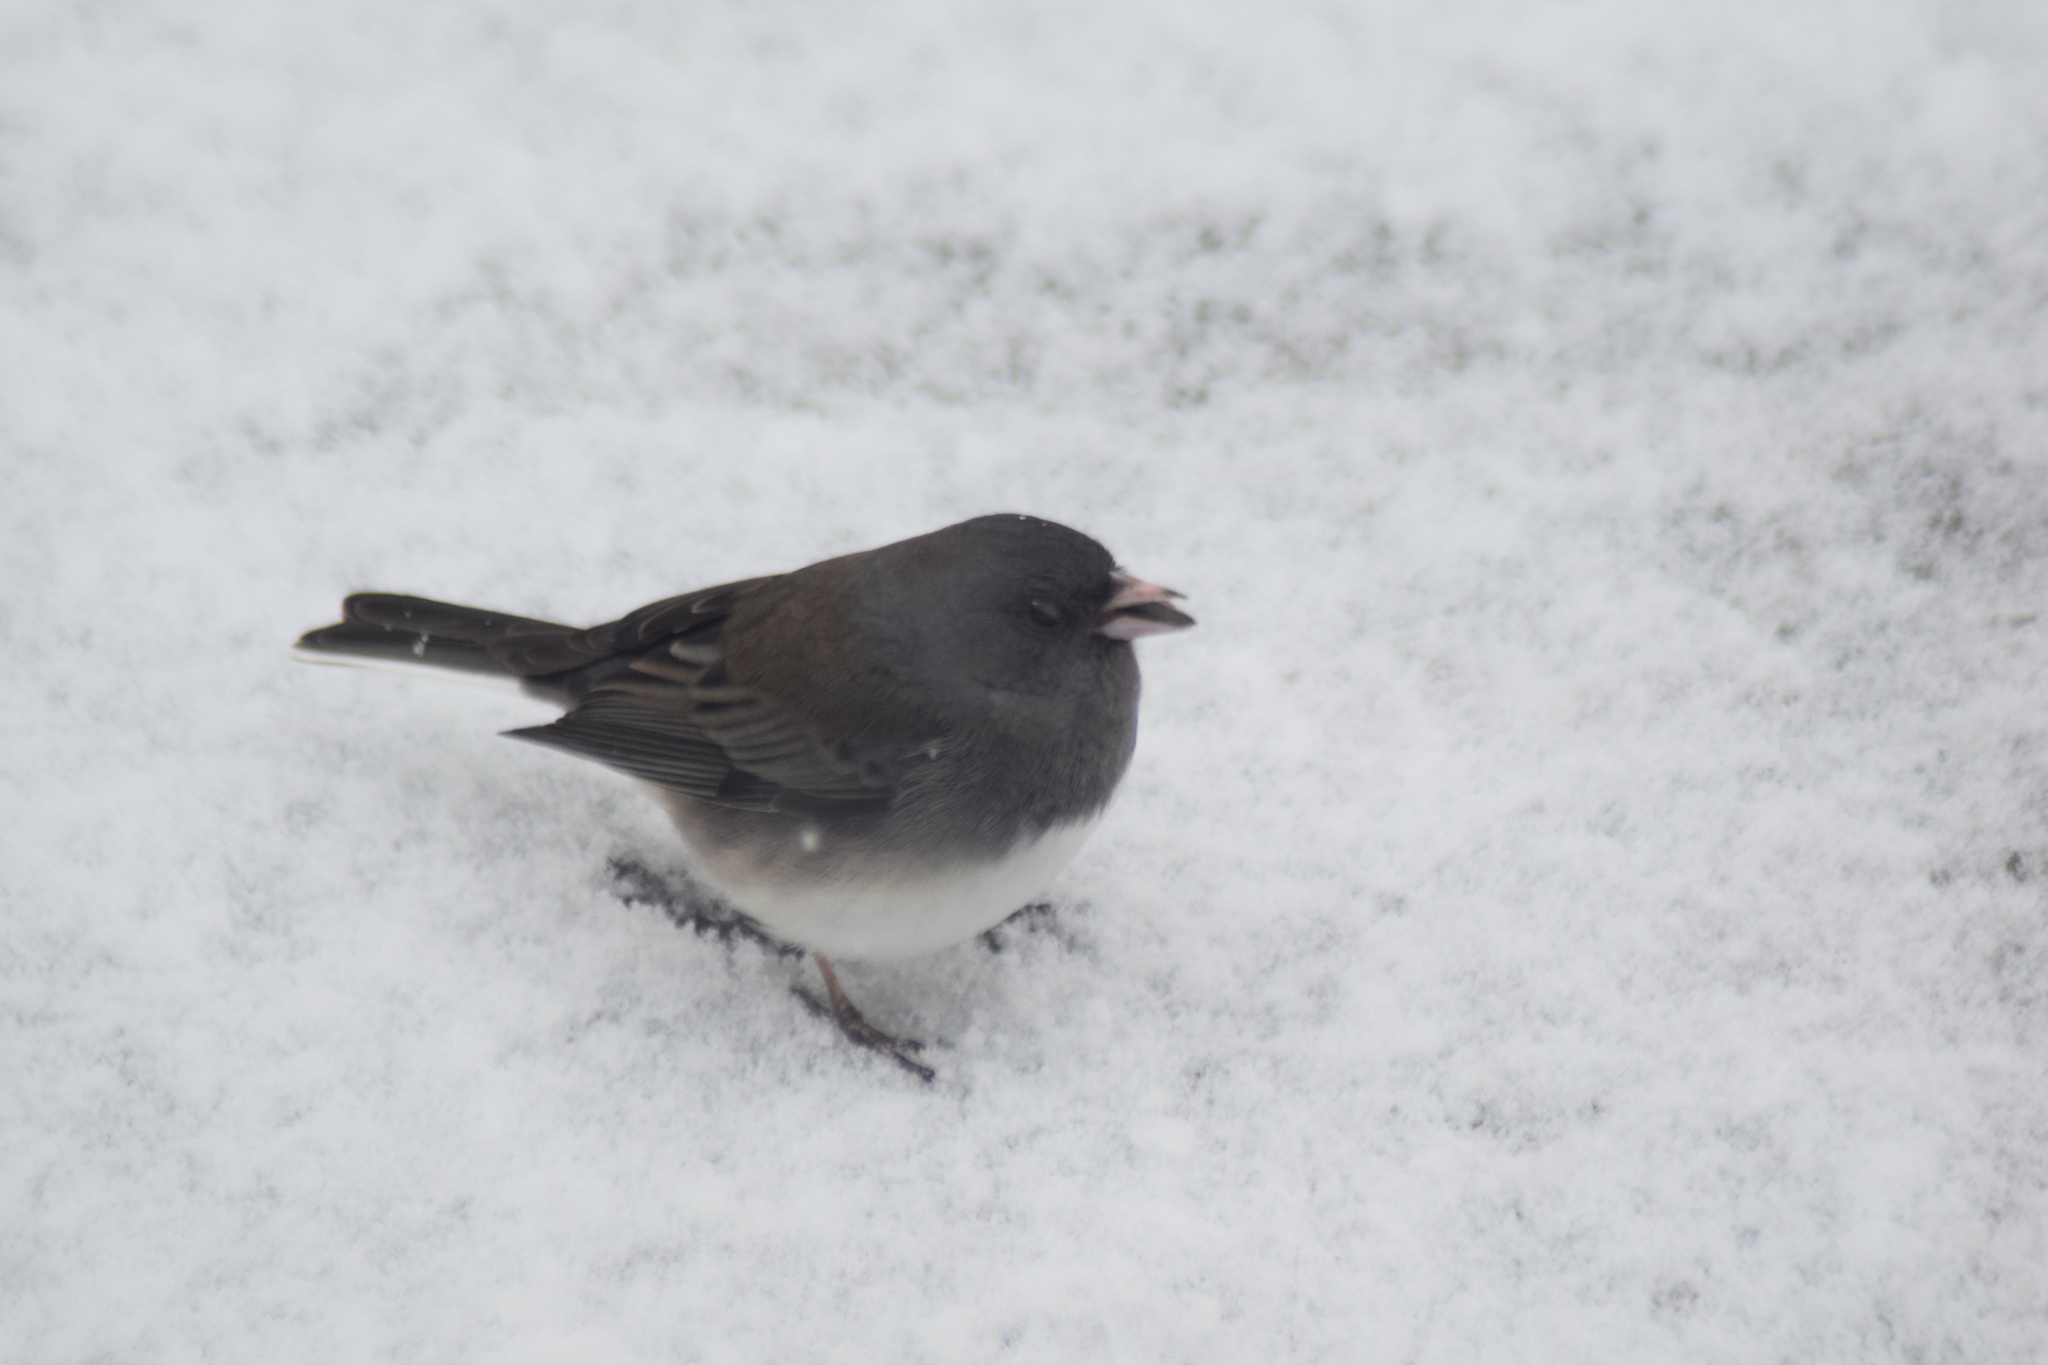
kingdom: Animalia
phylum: Chordata
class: Aves
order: Passeriformes
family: Passerellidae
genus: Junco
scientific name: Junco hyemalis
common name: Dark-eyed junco
